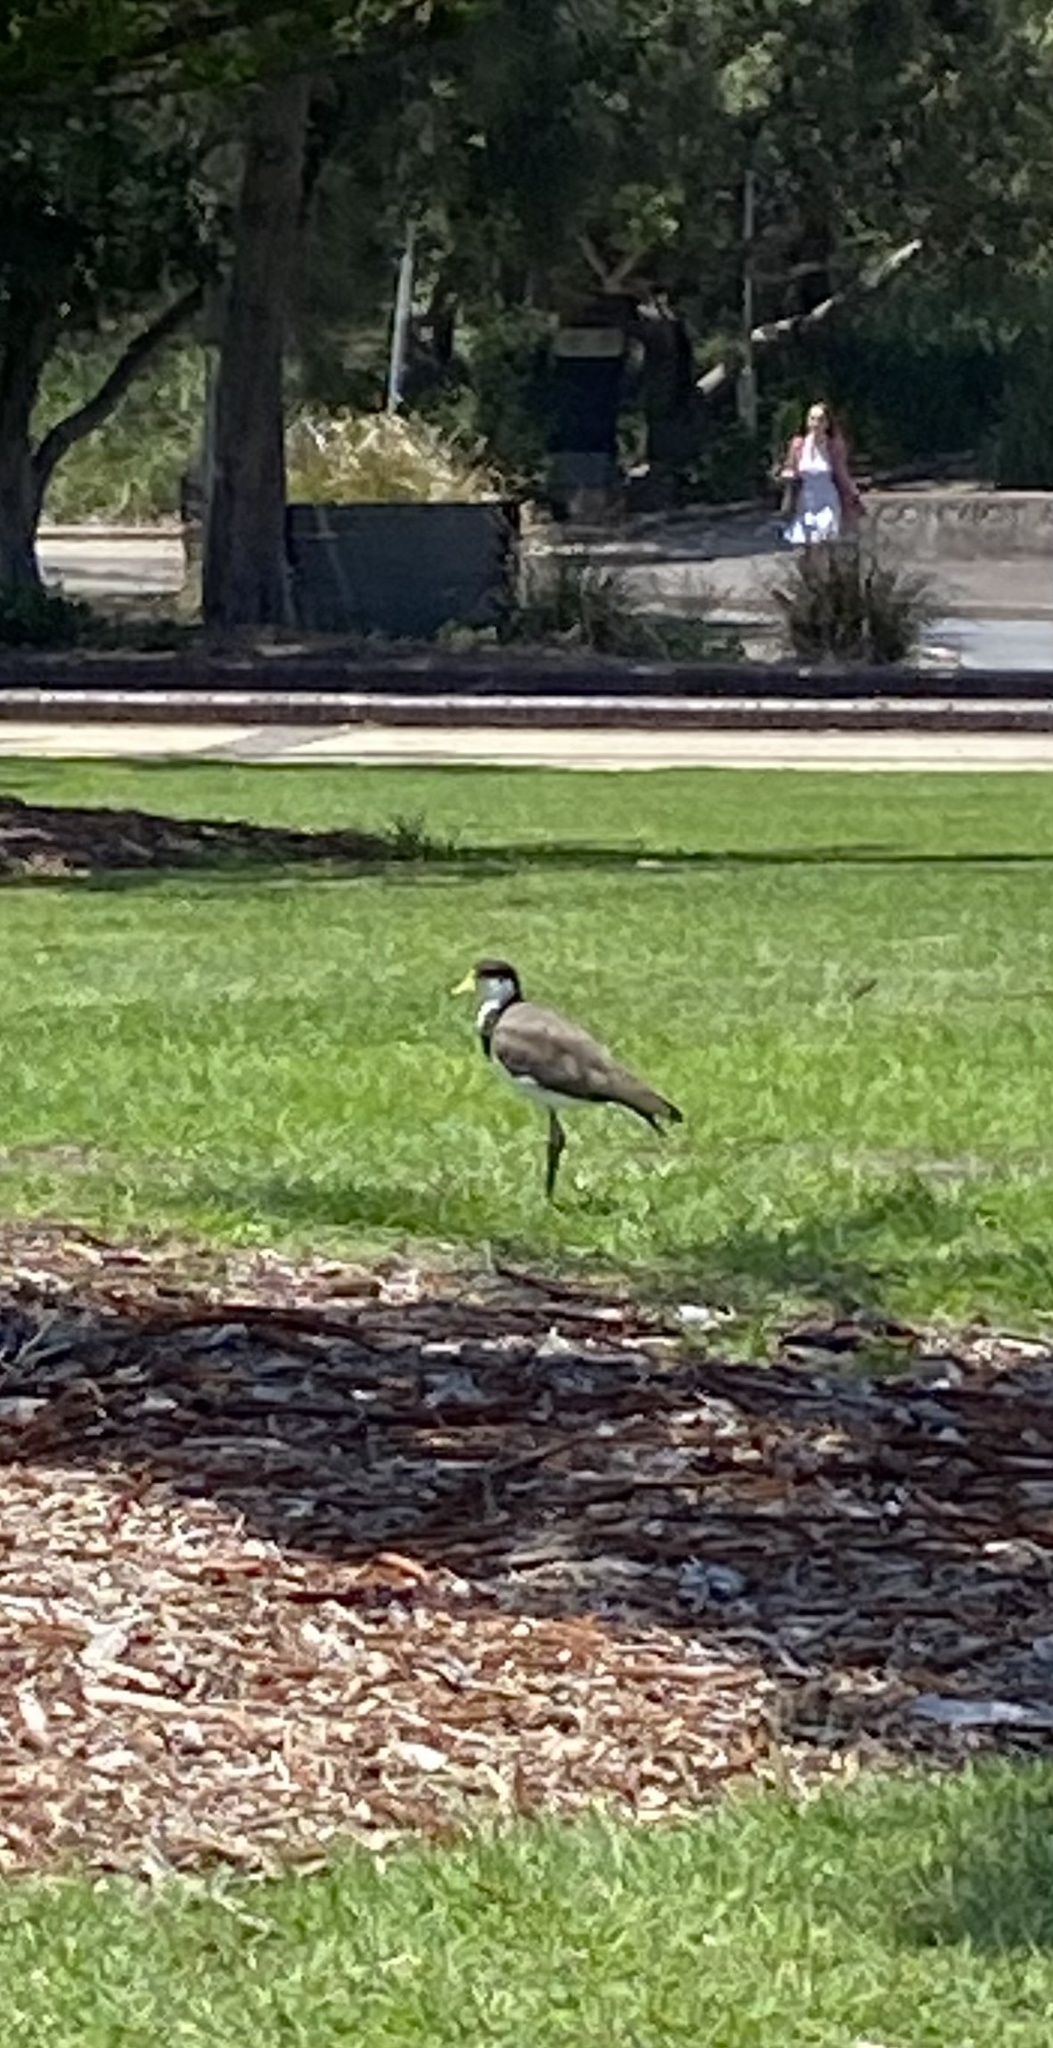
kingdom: Animalia
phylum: Chordata
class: Aves
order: Charadriiformes
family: Charadriidae
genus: Vanellus
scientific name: Vanellus miles
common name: Masked lapwing
